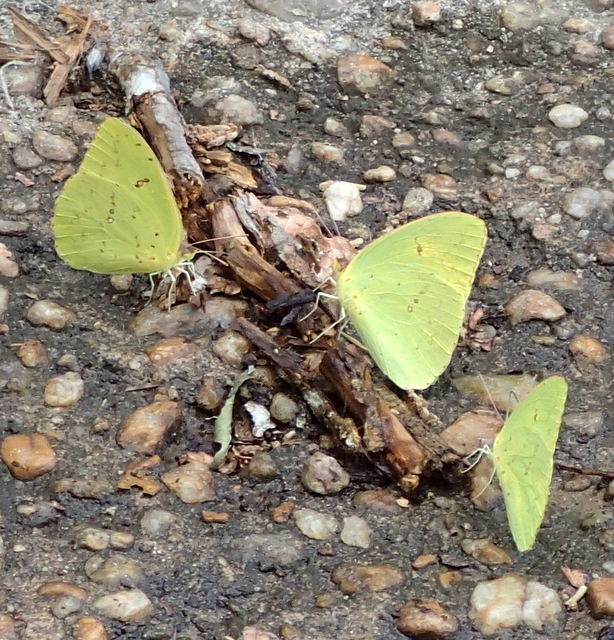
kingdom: Animalia
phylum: Arthropoda
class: Insecta
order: Lepidoptera
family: Pieridae
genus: Phoebis
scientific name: Phoebis sennae
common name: Cloudless sulphur
